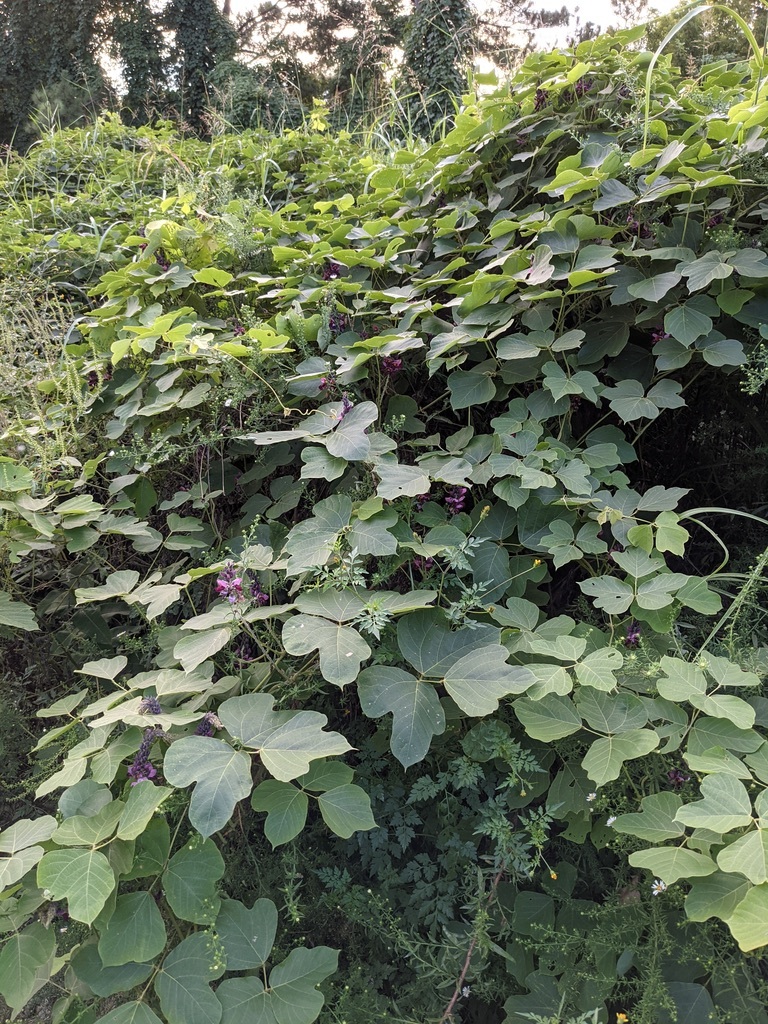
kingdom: Plantae
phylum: Tracheophyta
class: Magnoliopsida
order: Fabales
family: Fabaceae
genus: Pueraria
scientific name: Pueraria montana
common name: Kudzu
